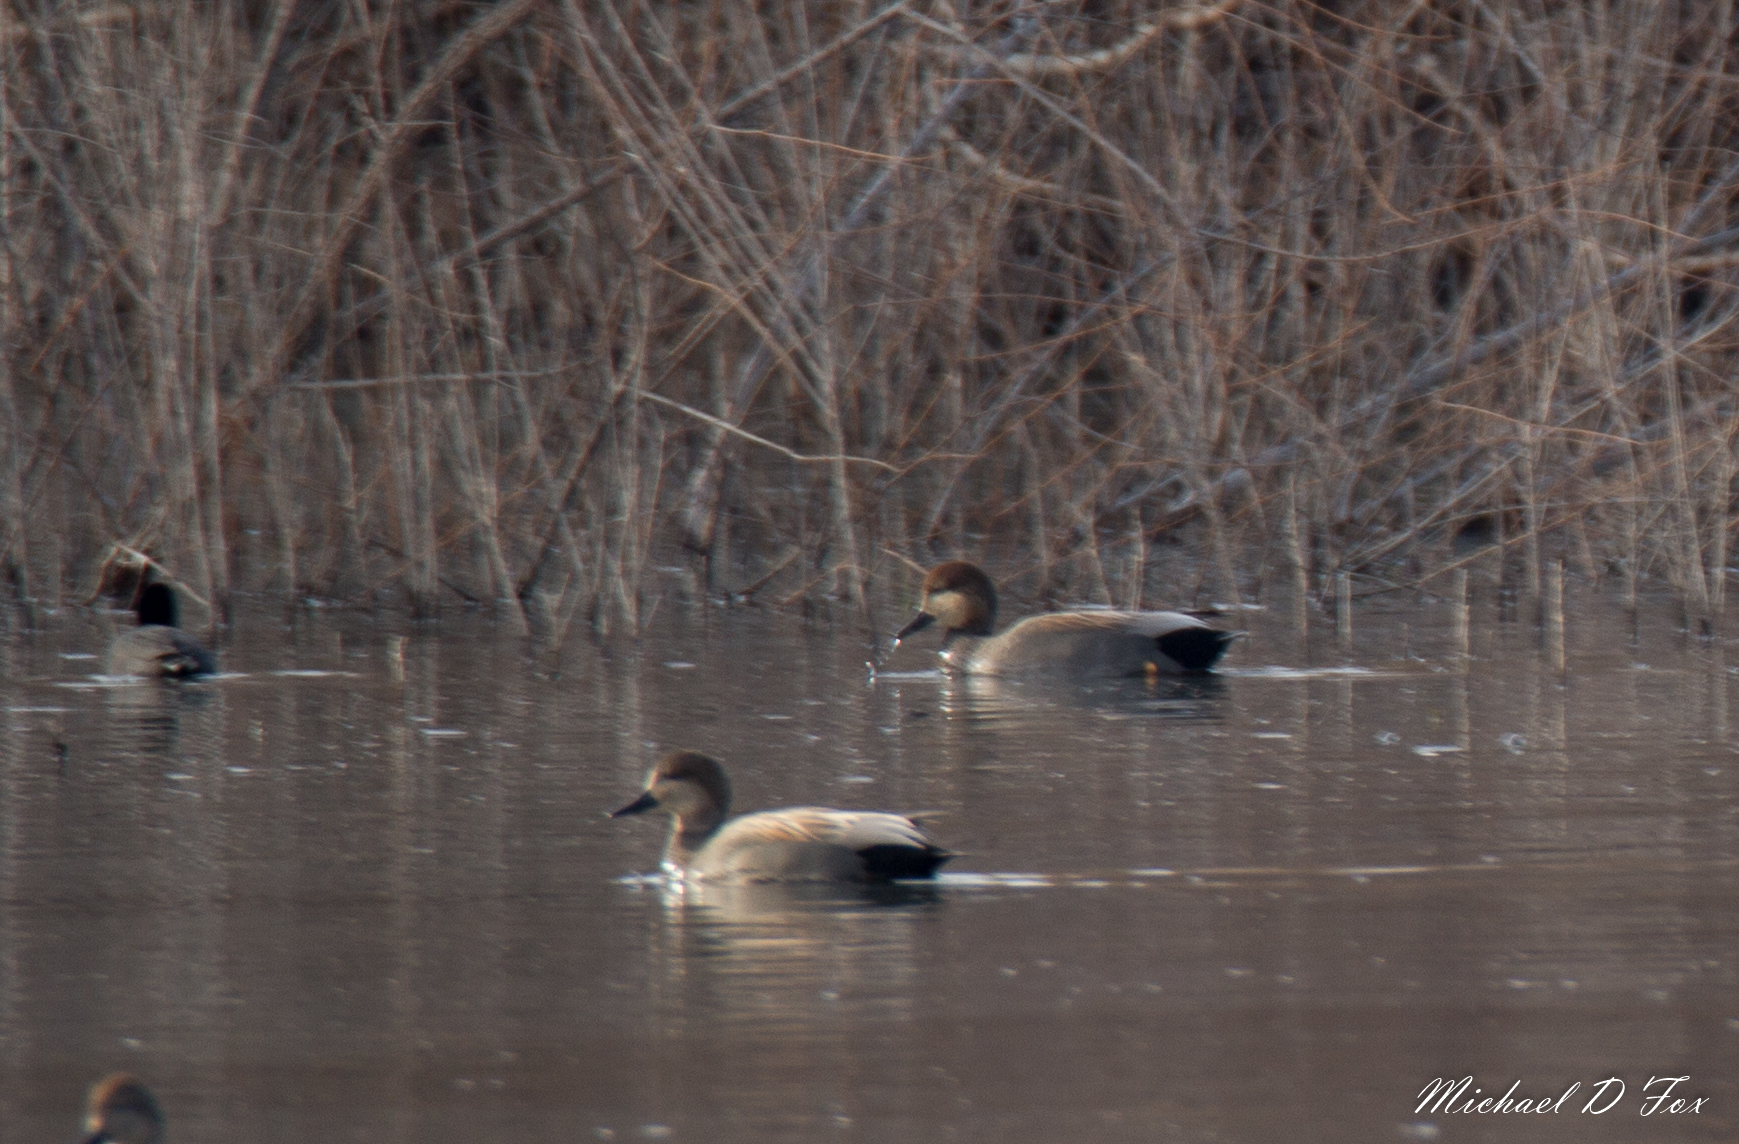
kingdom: Animalia
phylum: Chordata
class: Aves
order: Anseriformes
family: Anatidae
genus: Mareca
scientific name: Mareca strepera
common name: Gadwall
